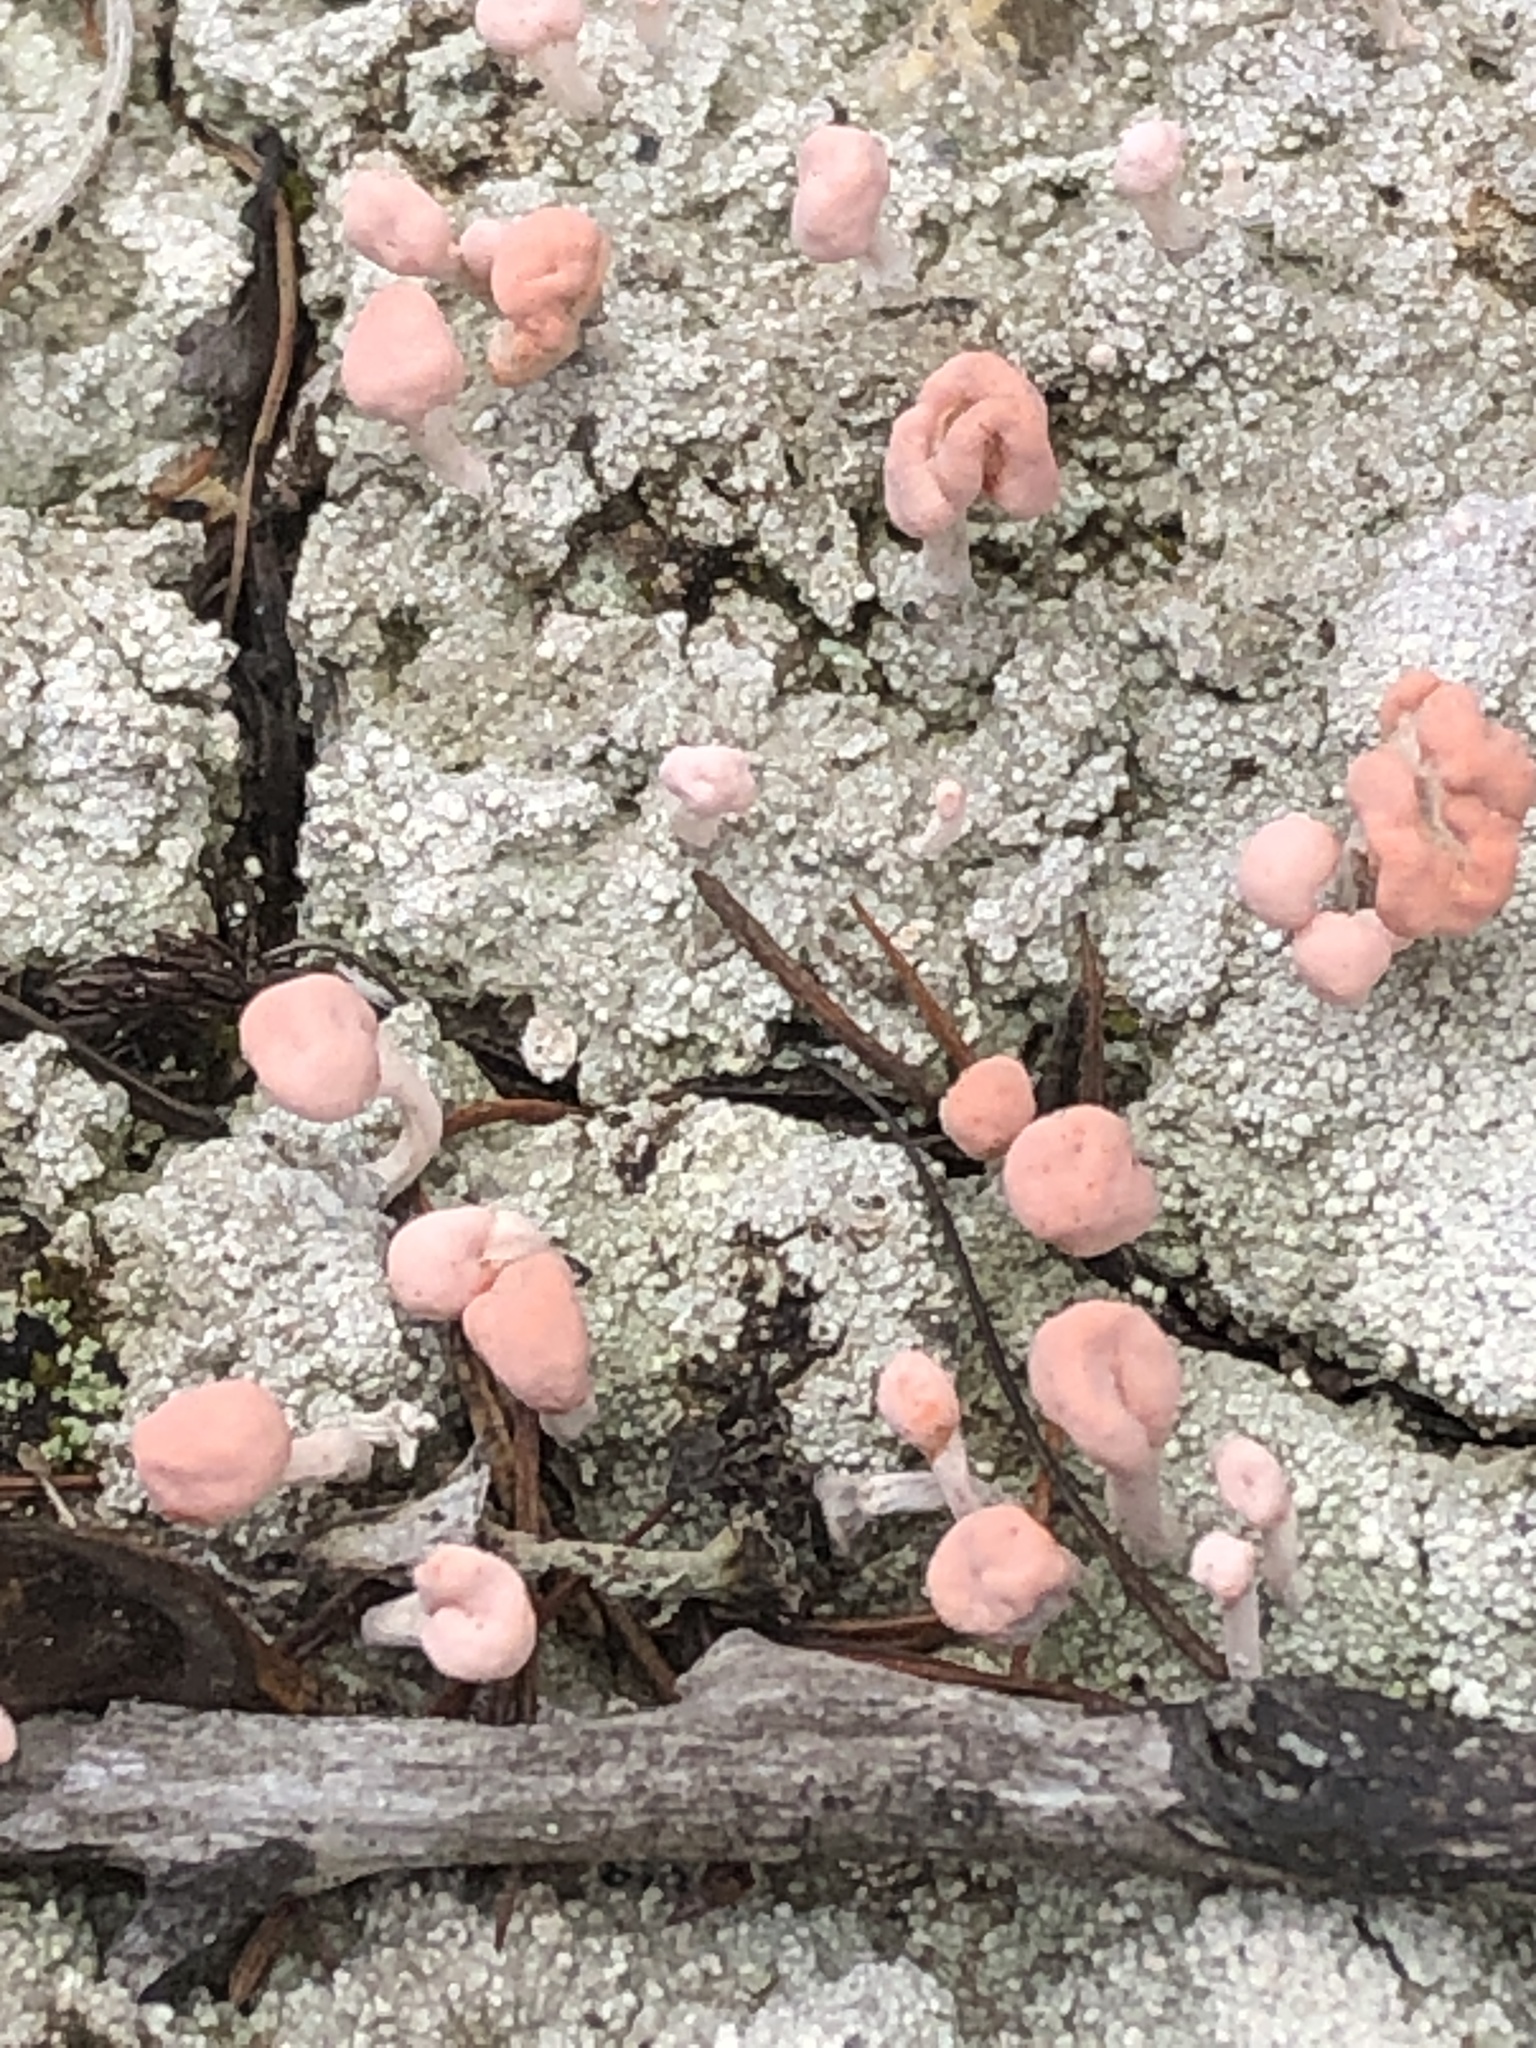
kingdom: Fungi
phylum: Ascomycota
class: Lecanoromycetes
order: Pertusariales
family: Icmadophilaceae
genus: Dibaeis
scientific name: Dibaeis baeomyces
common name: Pink earth lichen
